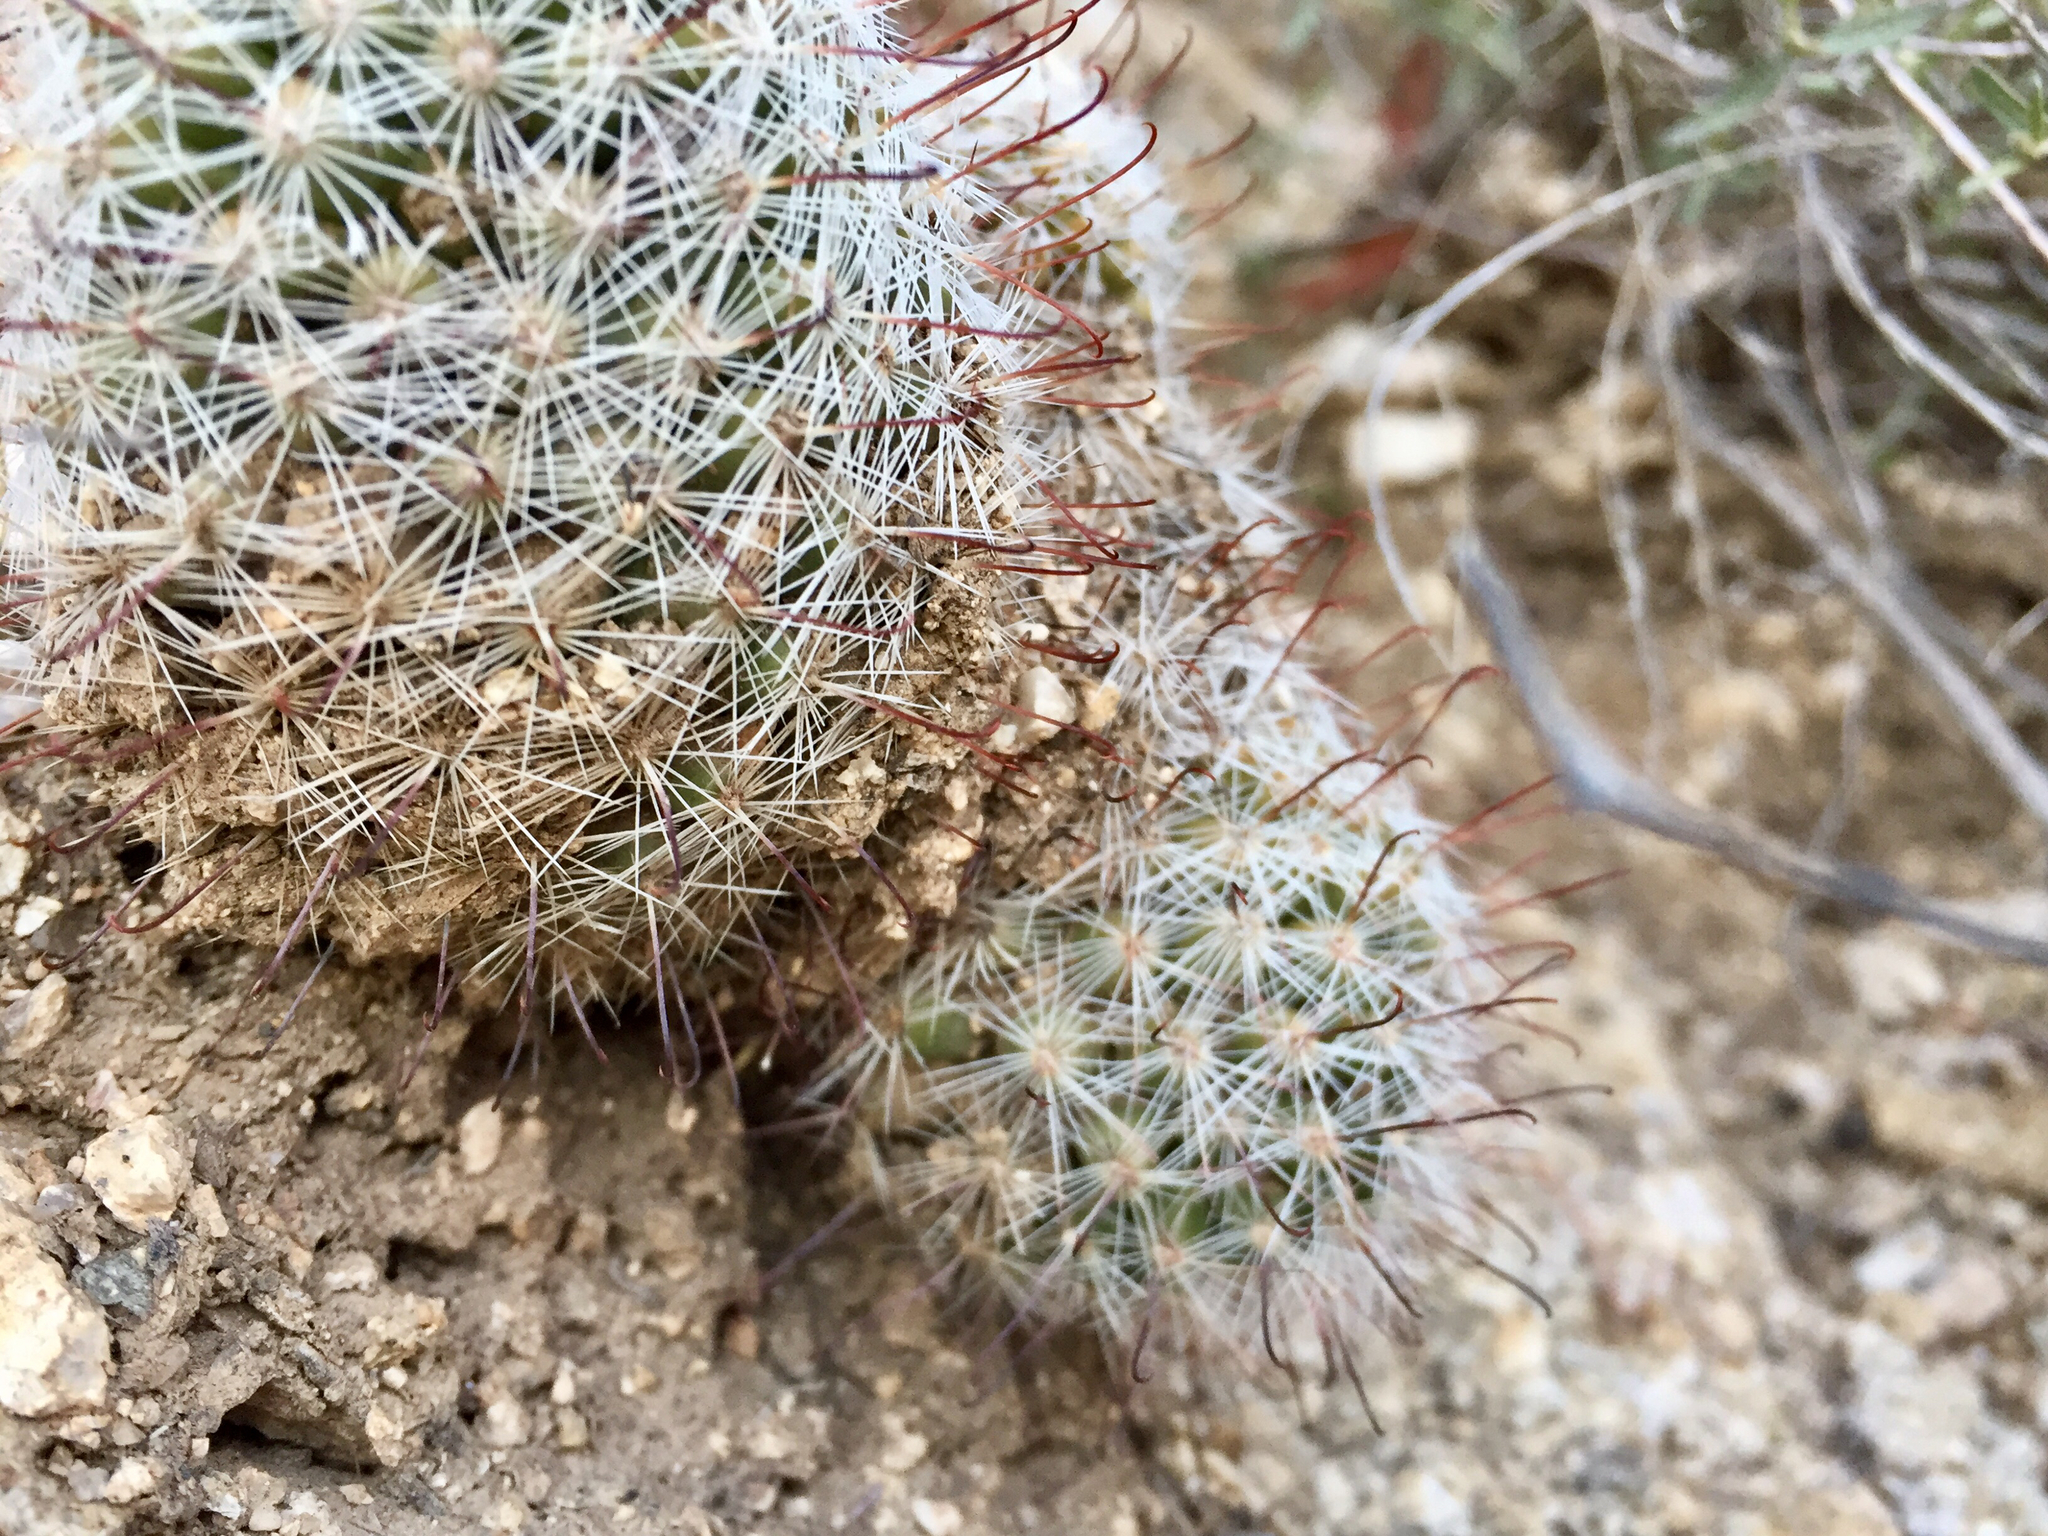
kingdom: Plantae
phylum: Tracheophyta
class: Magnoliopsida
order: Caryophyllales
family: Cactaceae
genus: Cochemiea
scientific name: Cochemiea grahamii
